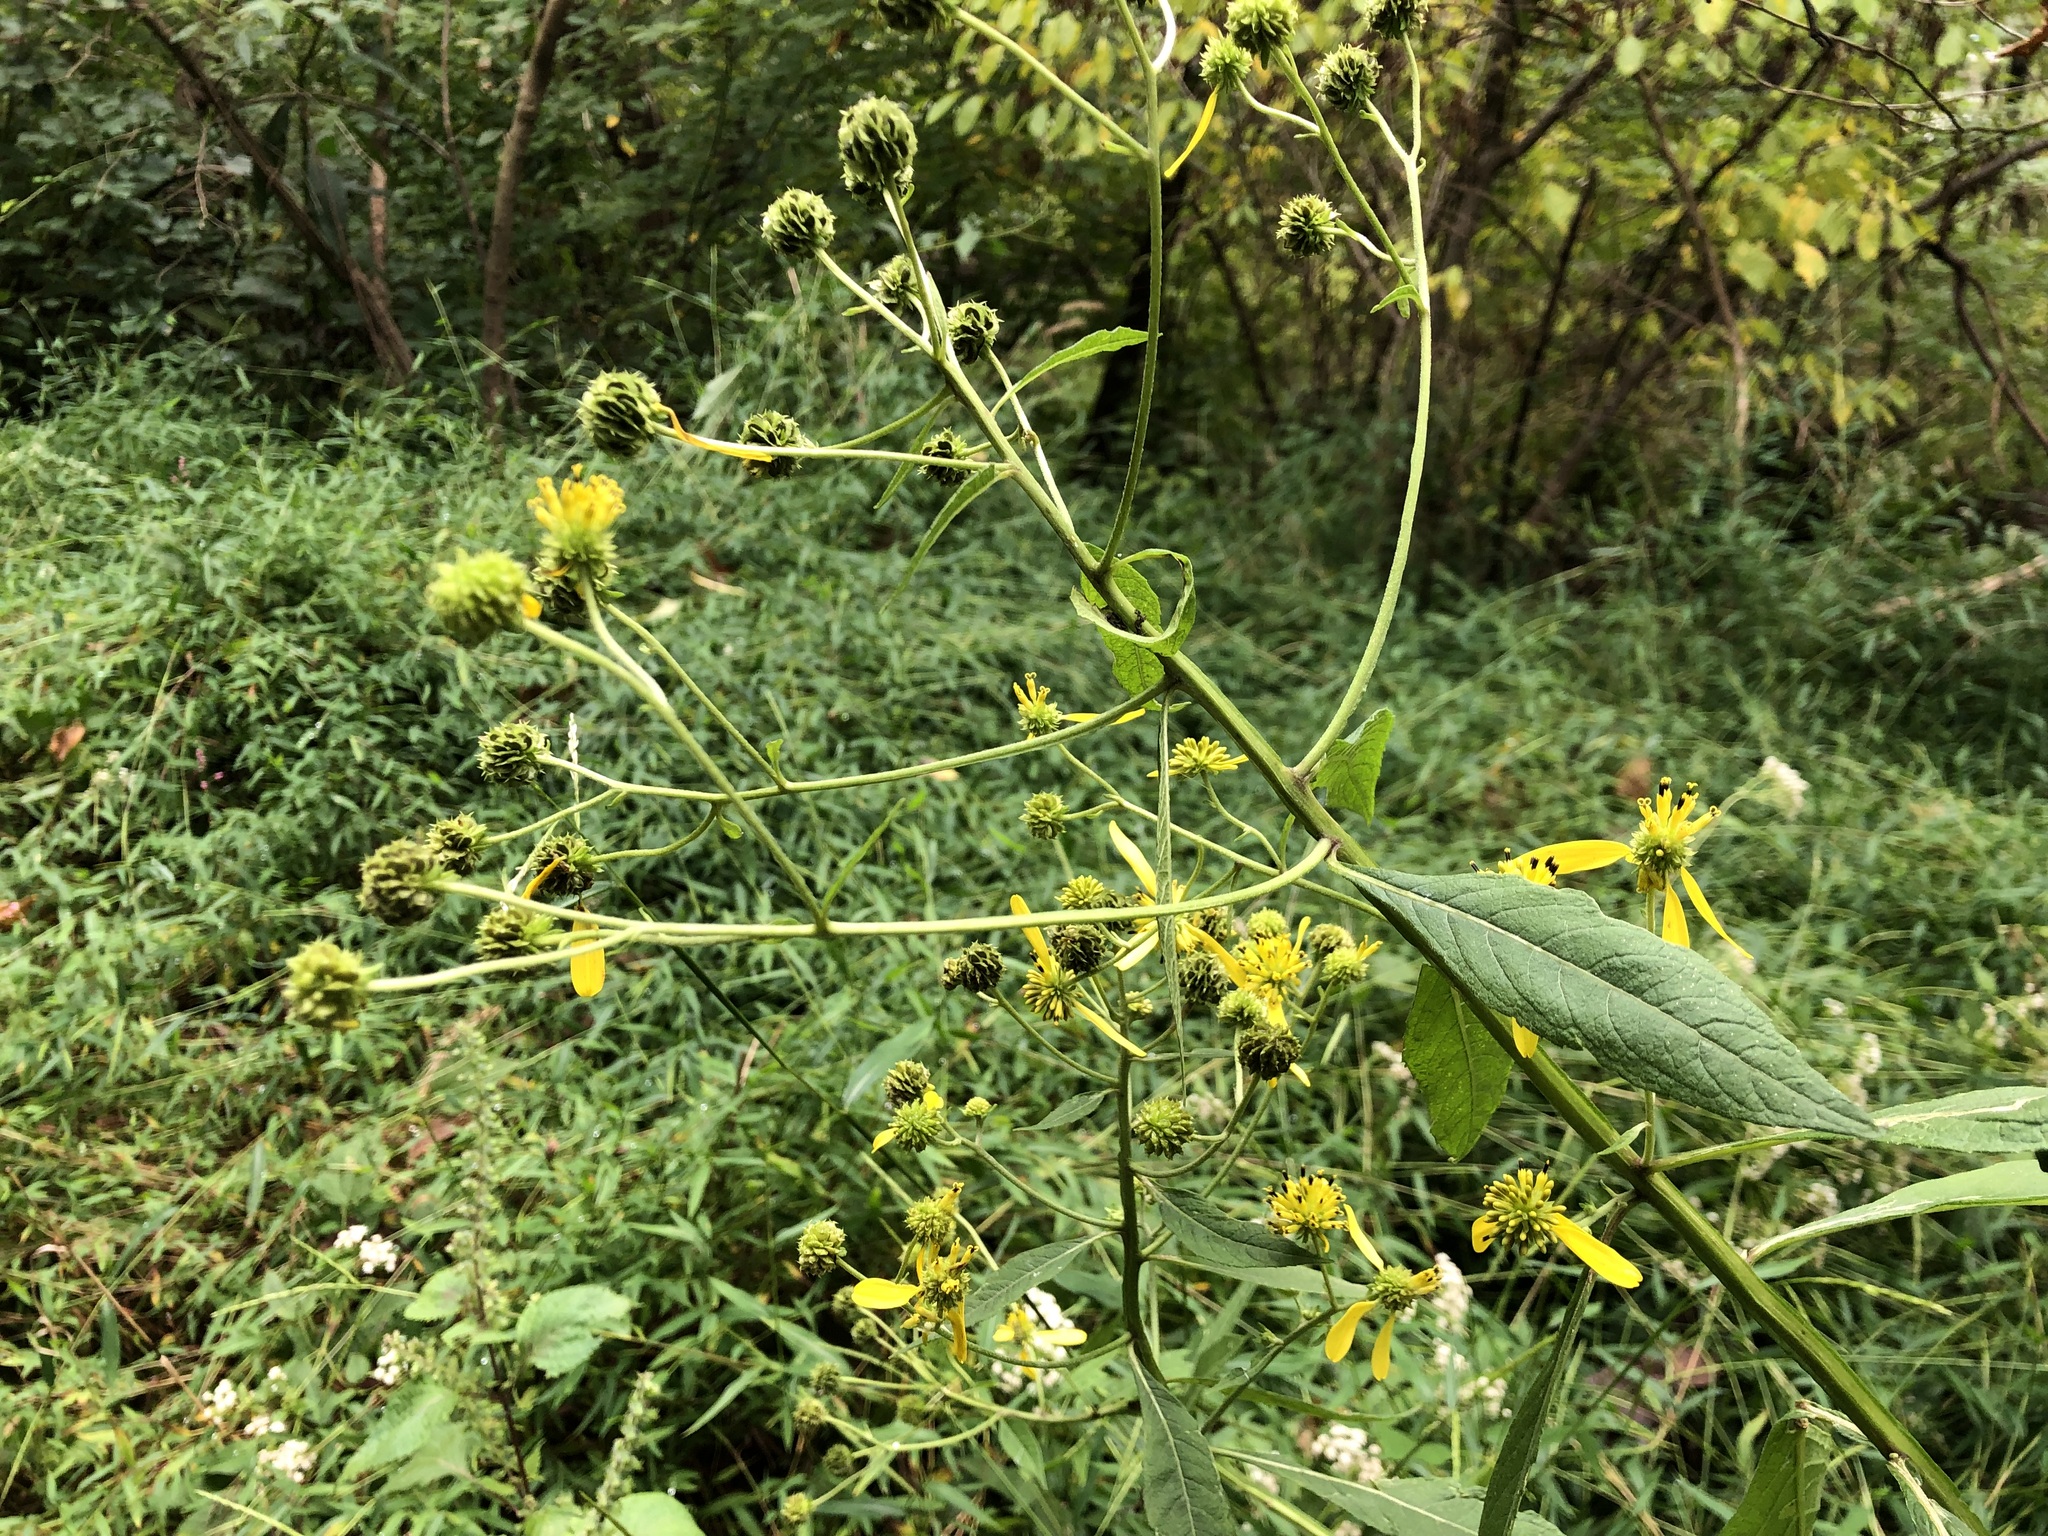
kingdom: Plantae
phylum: Tracheophyta
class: Magnoliopsida
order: Asterales
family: Asteraceae
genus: Verbesina
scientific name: Verbesina alternifolia
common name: Wingstem
